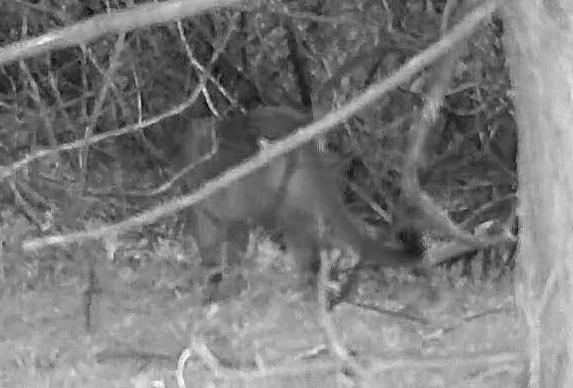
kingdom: Animalia
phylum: Chordata
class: Mammalia
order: Carnivora
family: Felidae
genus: Puma
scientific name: Puma concolor
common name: Puma
